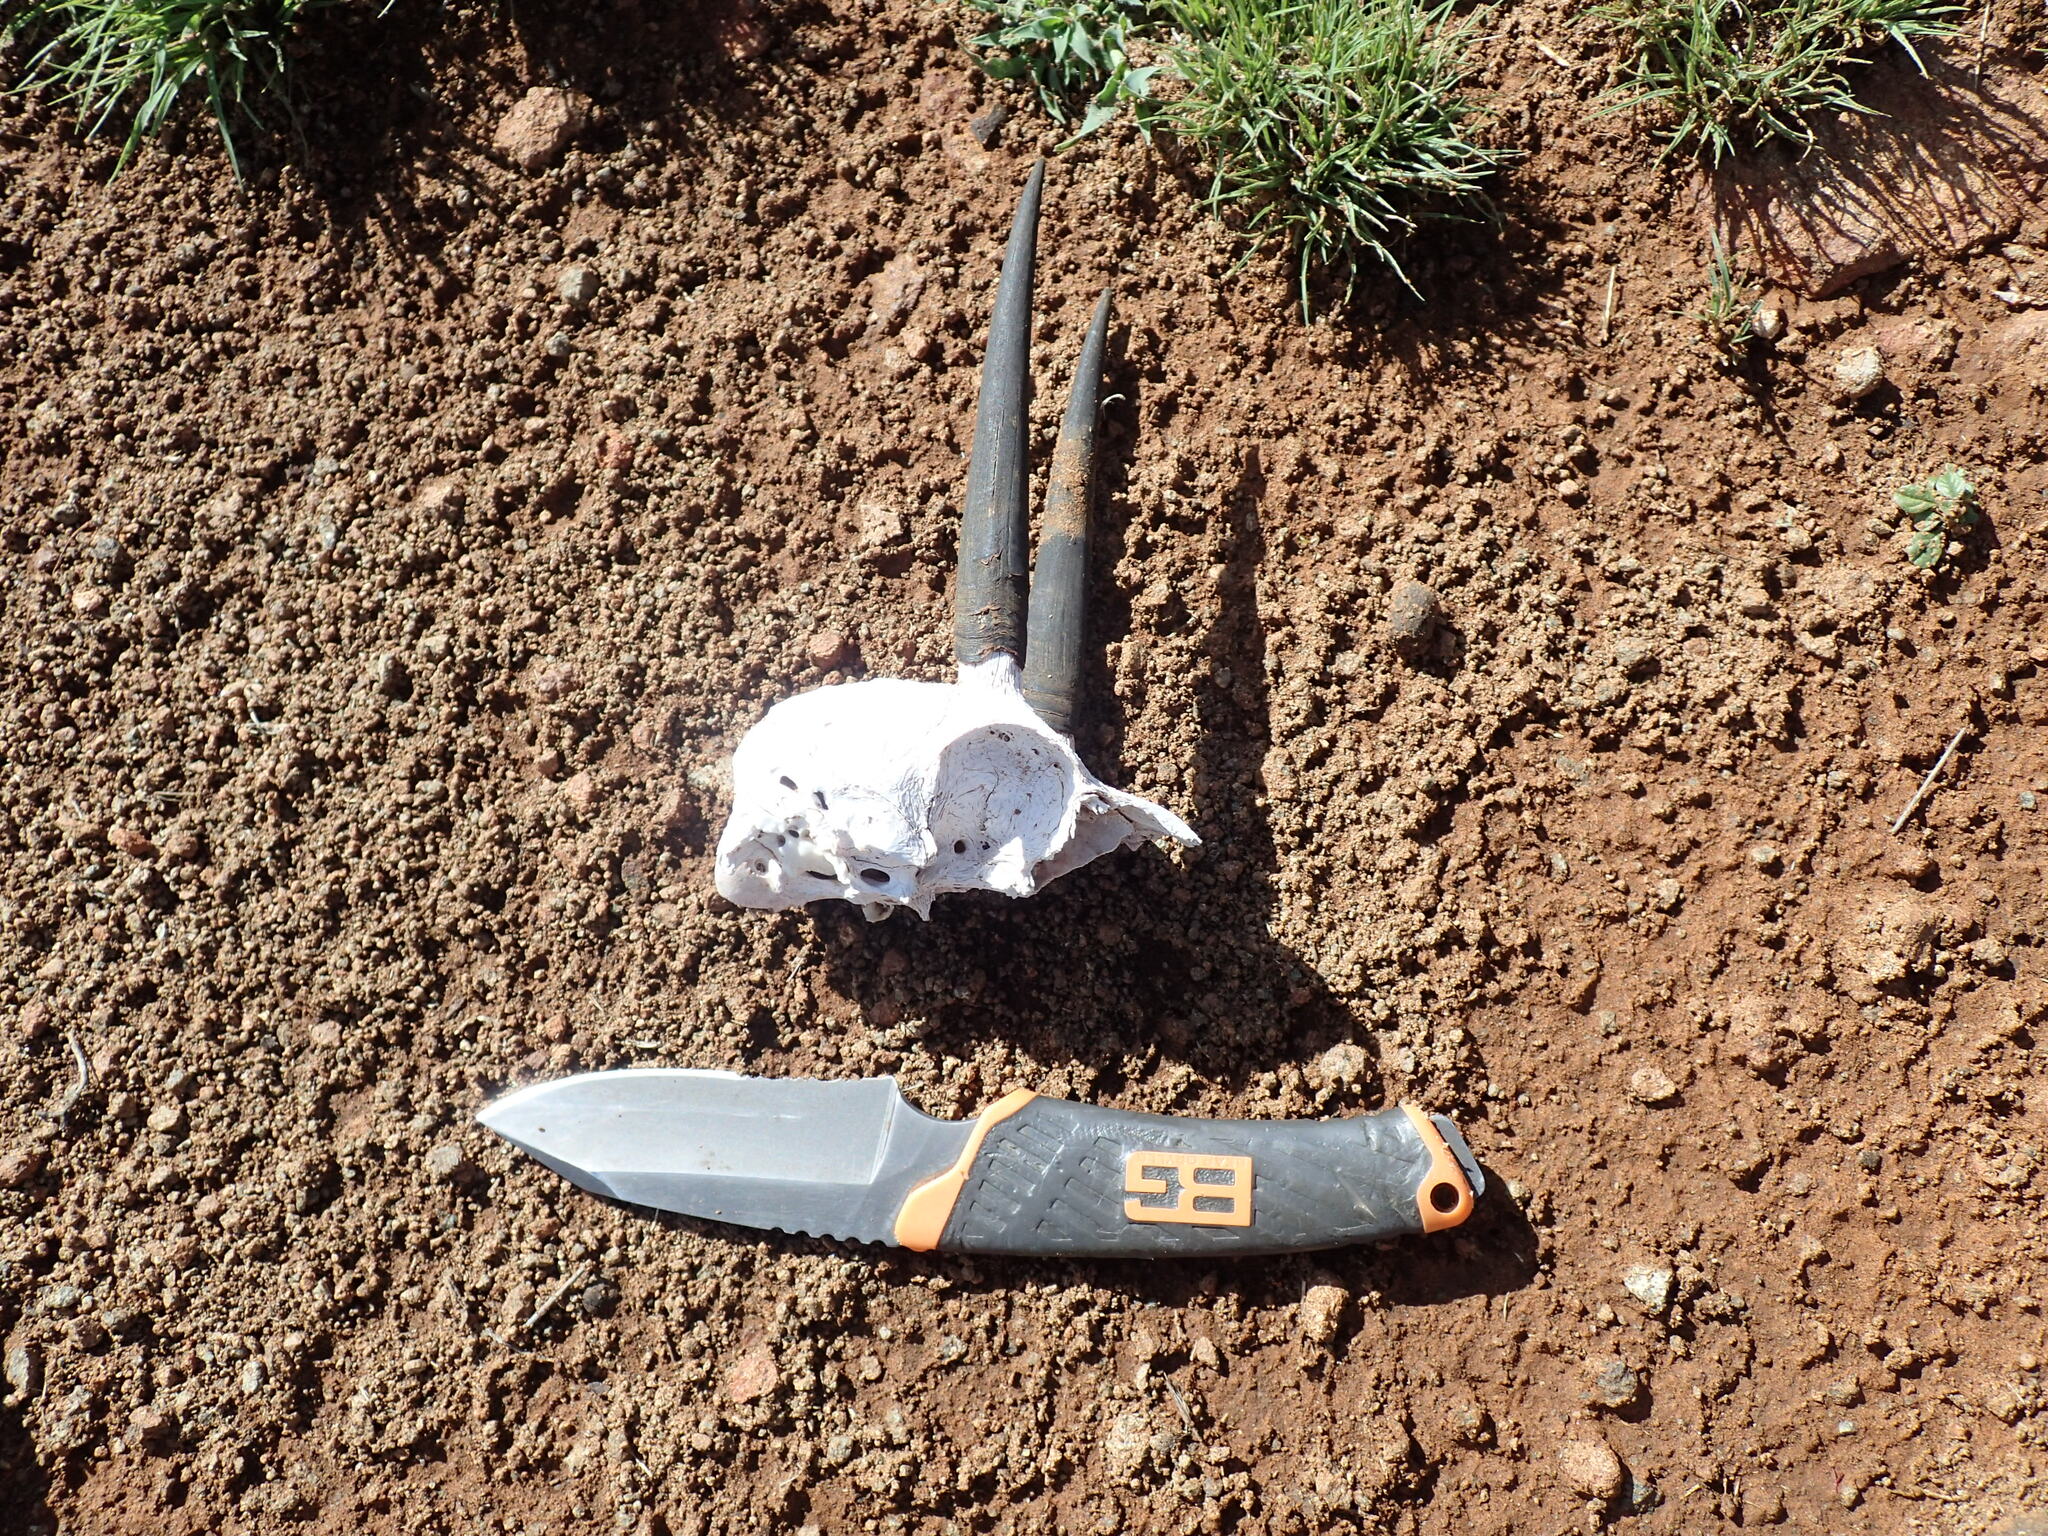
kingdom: Animalia
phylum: Chordata
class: Mammalia
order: Artiodactyla
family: Bovidae
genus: Raphicerus
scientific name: Raphicerus campestris
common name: Steenbok
